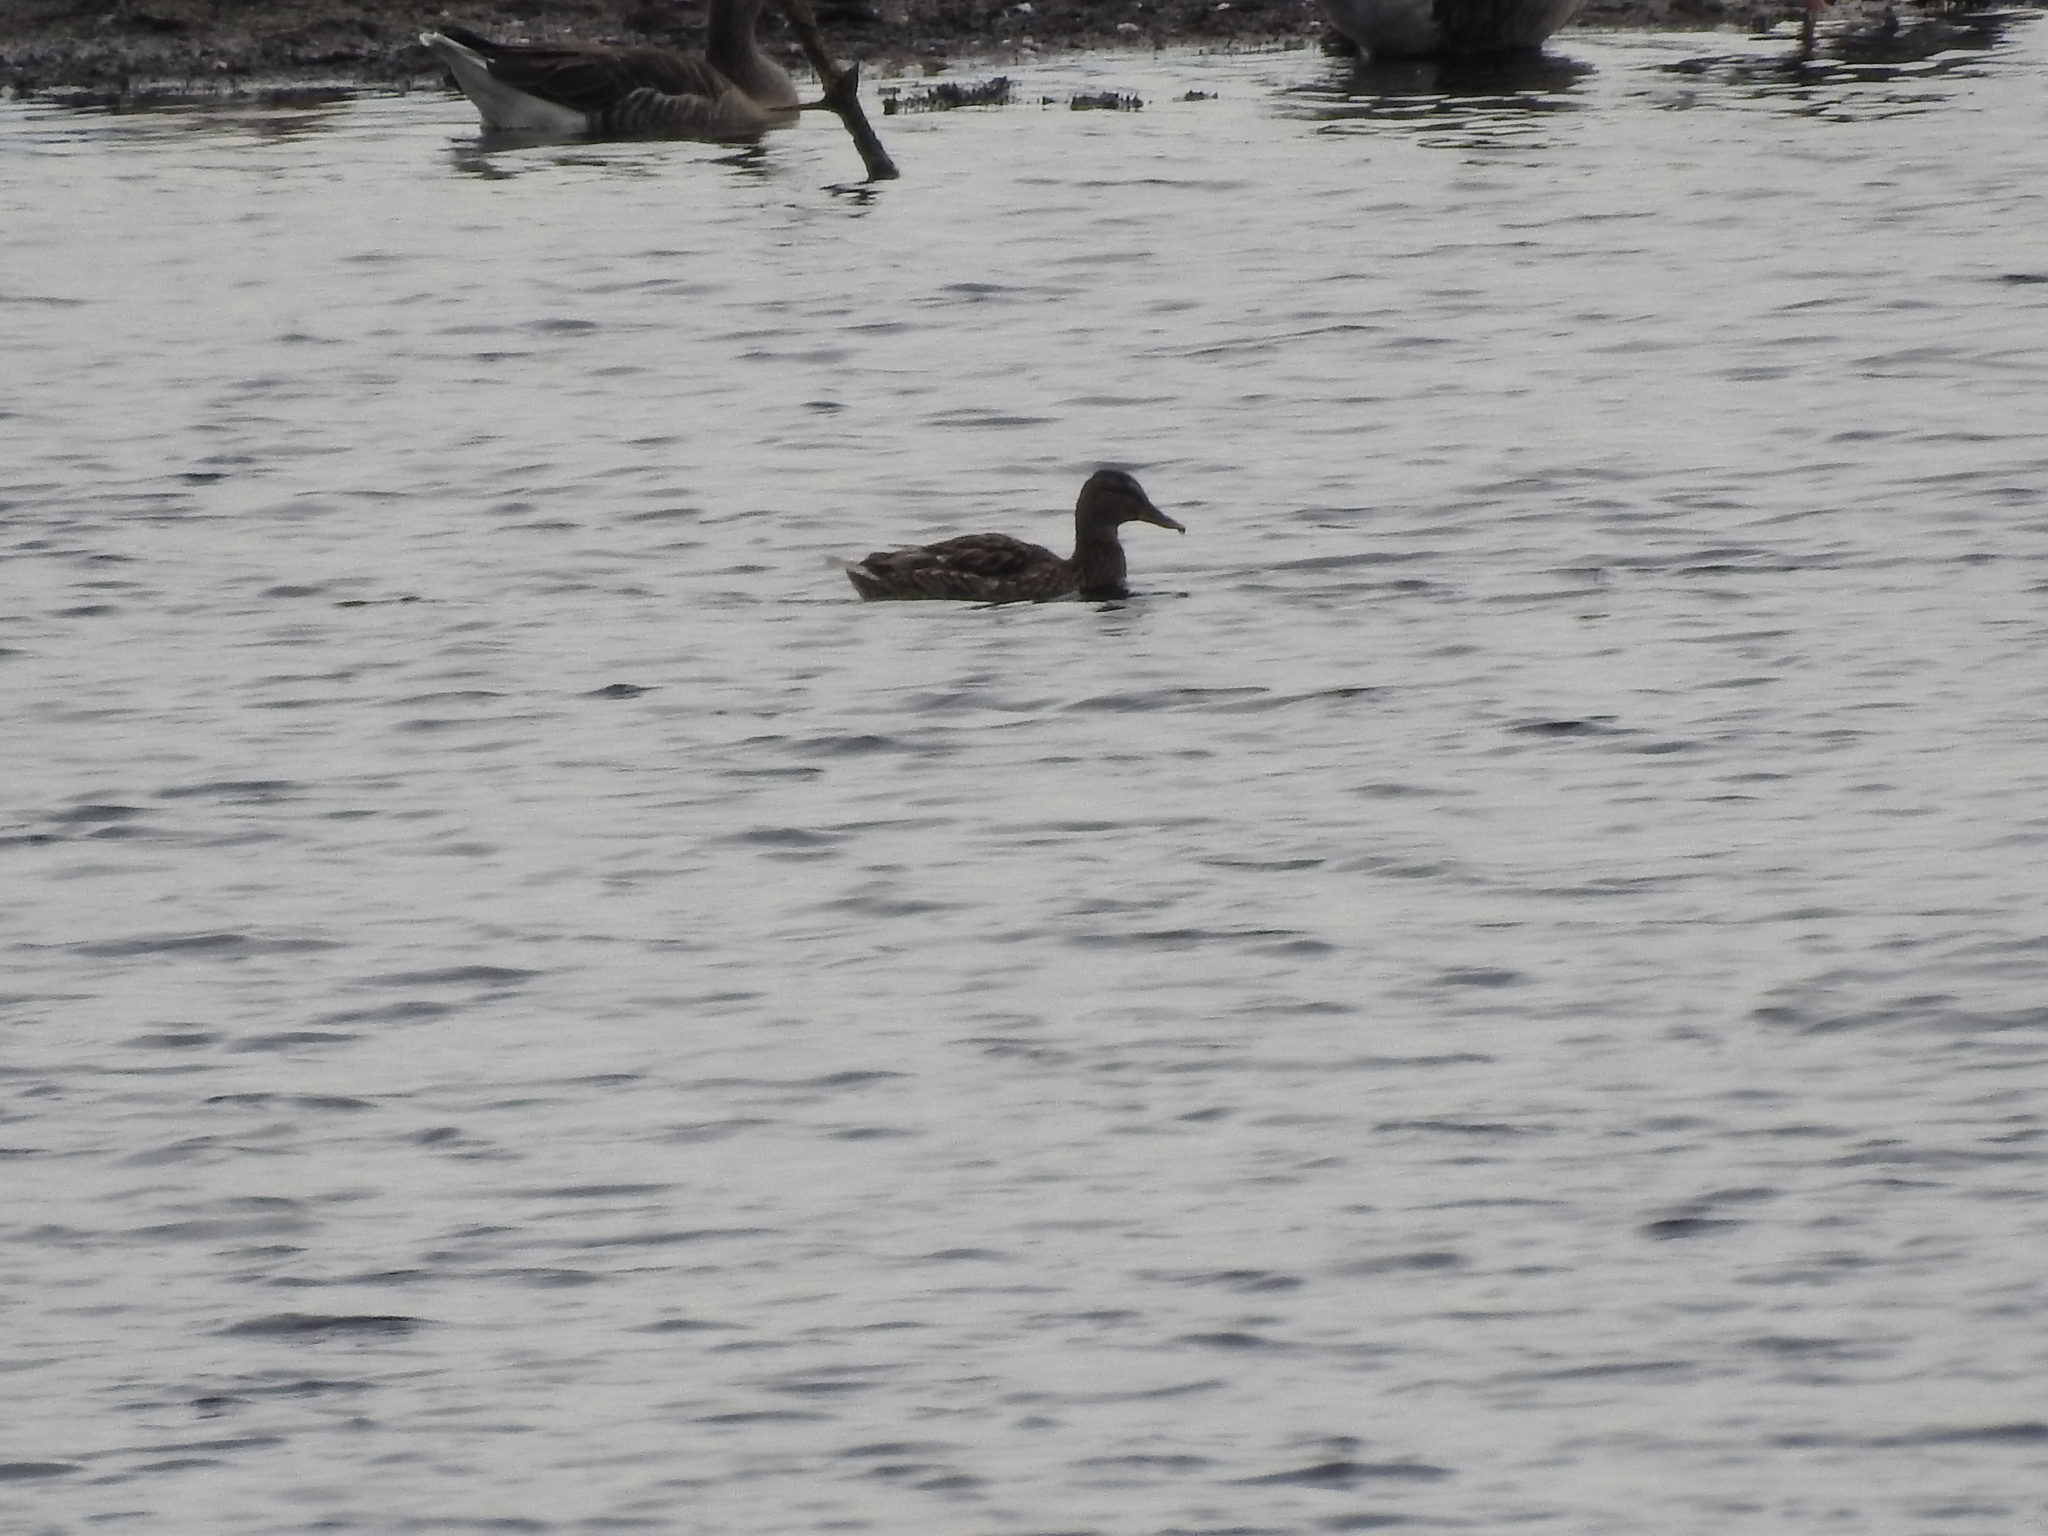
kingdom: Animalia
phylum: Chordata
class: Aves
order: Anseriformes
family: Anatidae
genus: Anas
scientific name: Anas platyrhynchos
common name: Mallard
